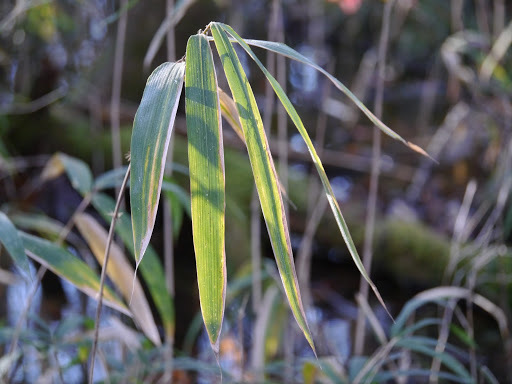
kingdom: Plantae
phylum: Tracheophyta
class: Liliopsida
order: Poales
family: Poaceae
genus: Arundinaria
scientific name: Arundinaria tecta
